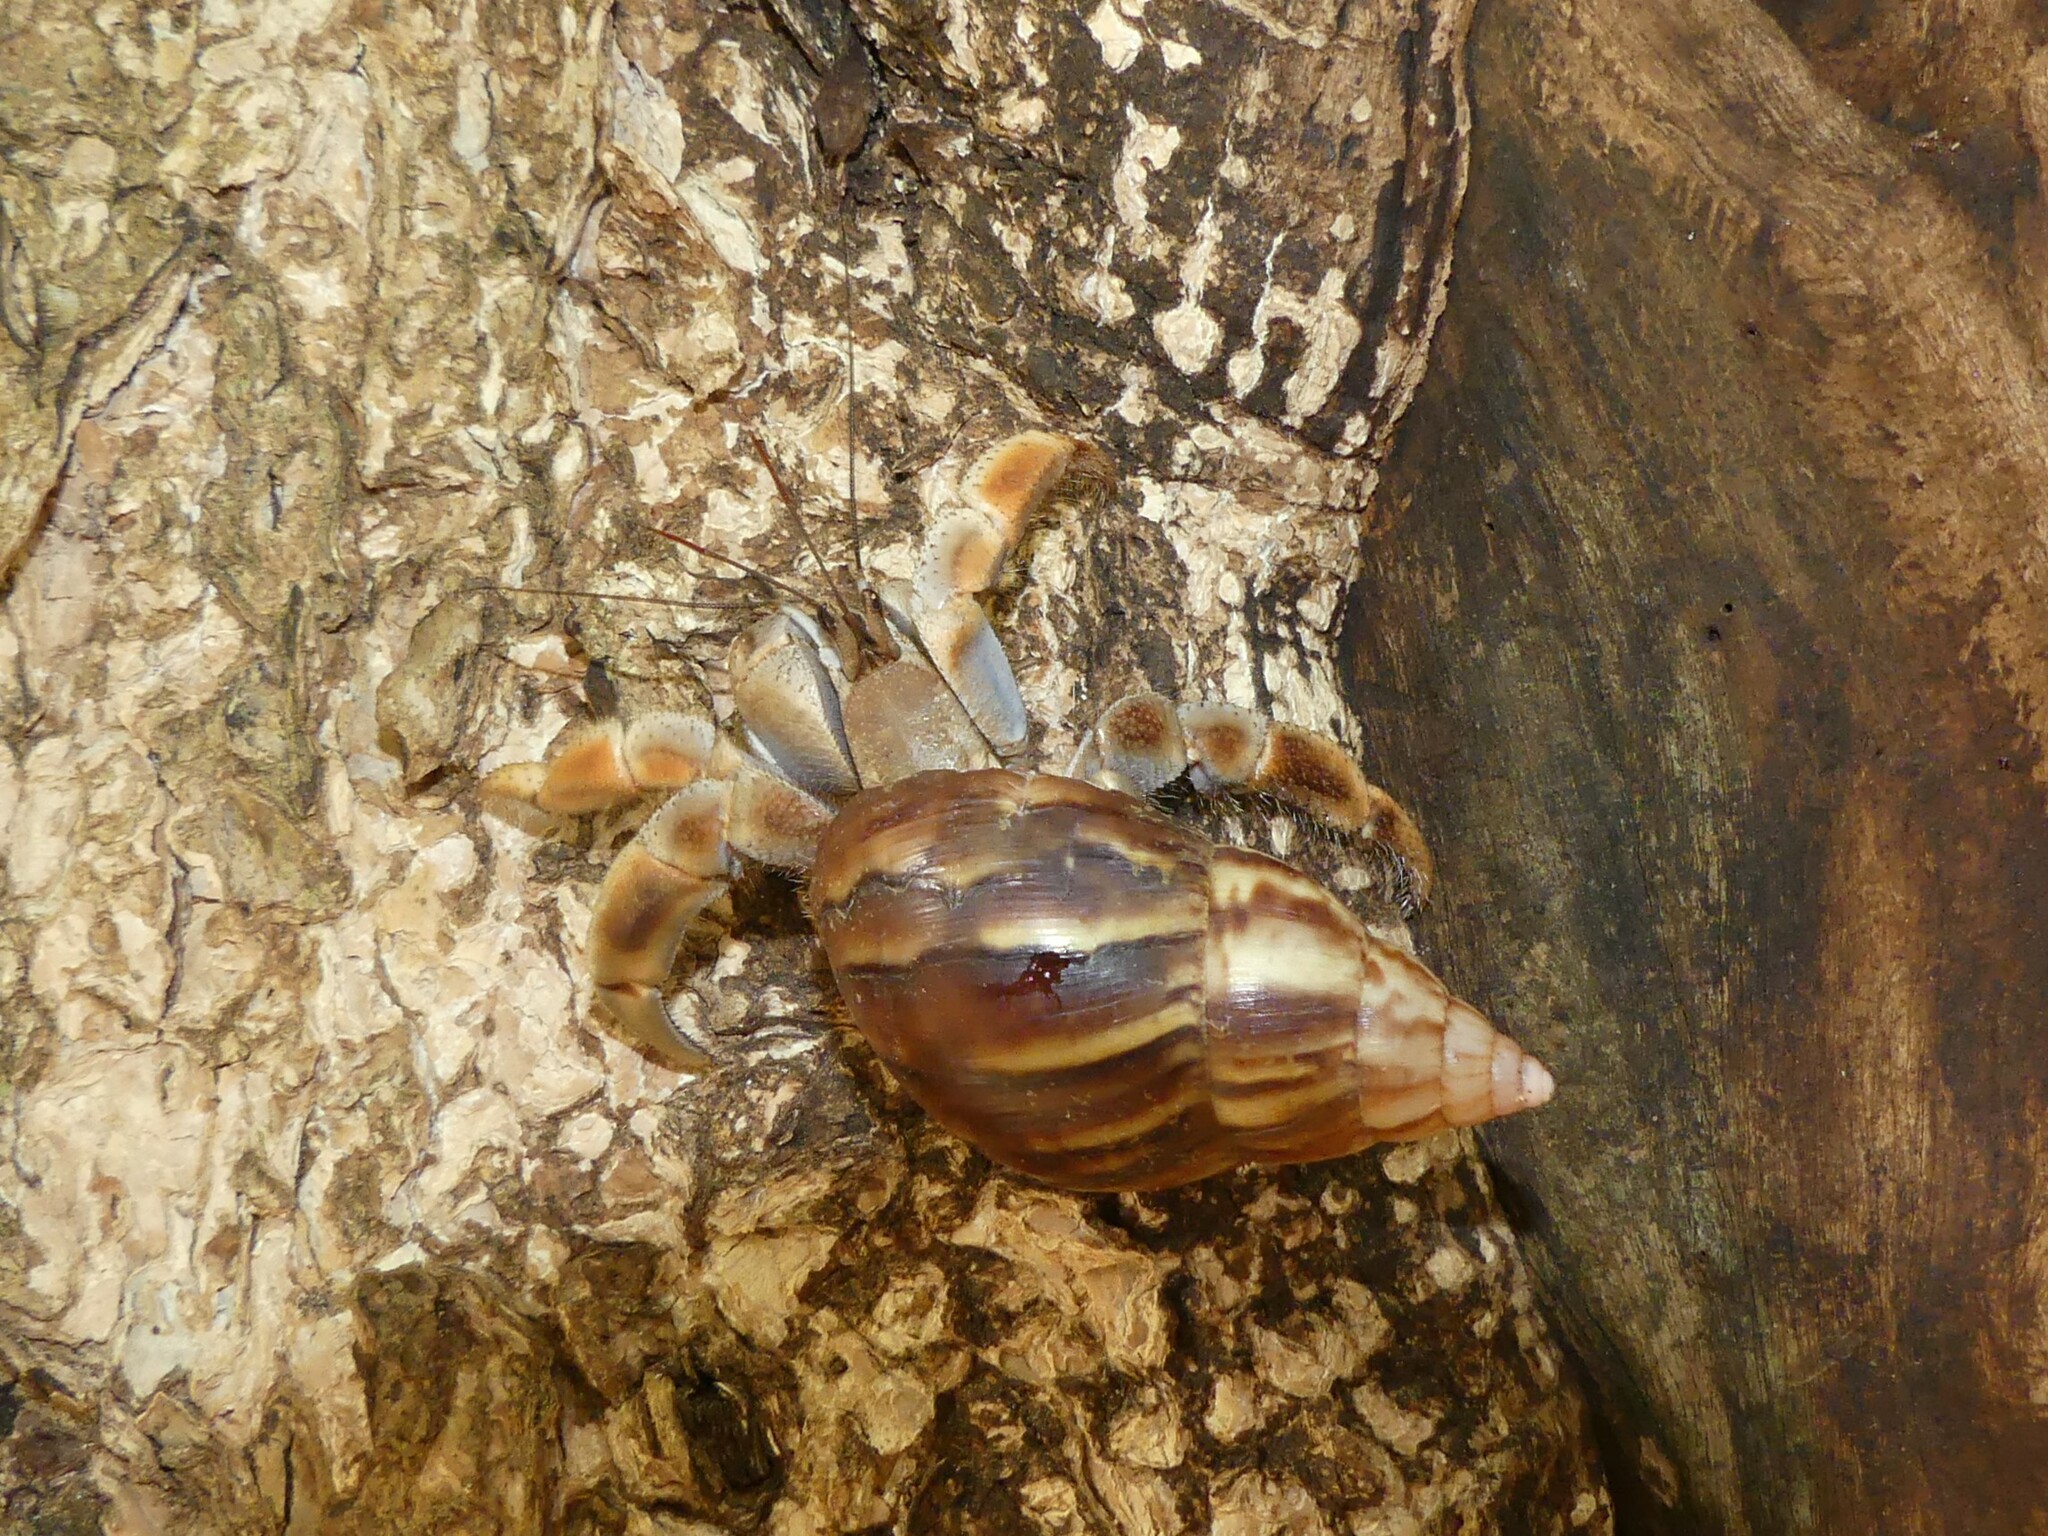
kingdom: Animalia
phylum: Arthropoda
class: Malacostraca
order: Decapoda
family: Coenobitidae
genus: Coenobita
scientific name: Coenobita violascens
